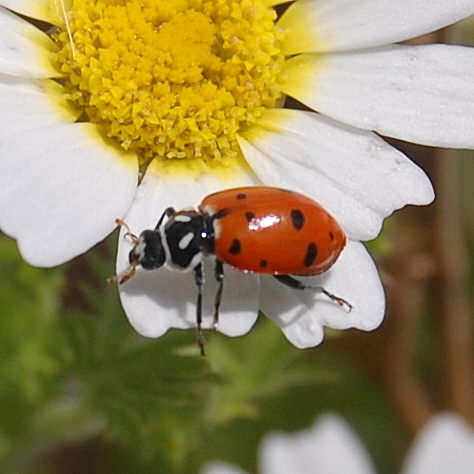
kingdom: Animalia
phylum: Arthropoda
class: Insecta
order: Coleoptera
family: Coccinellidae
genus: Hippodamia
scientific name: Hippodamia convergens
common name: Convergent lady beetle
